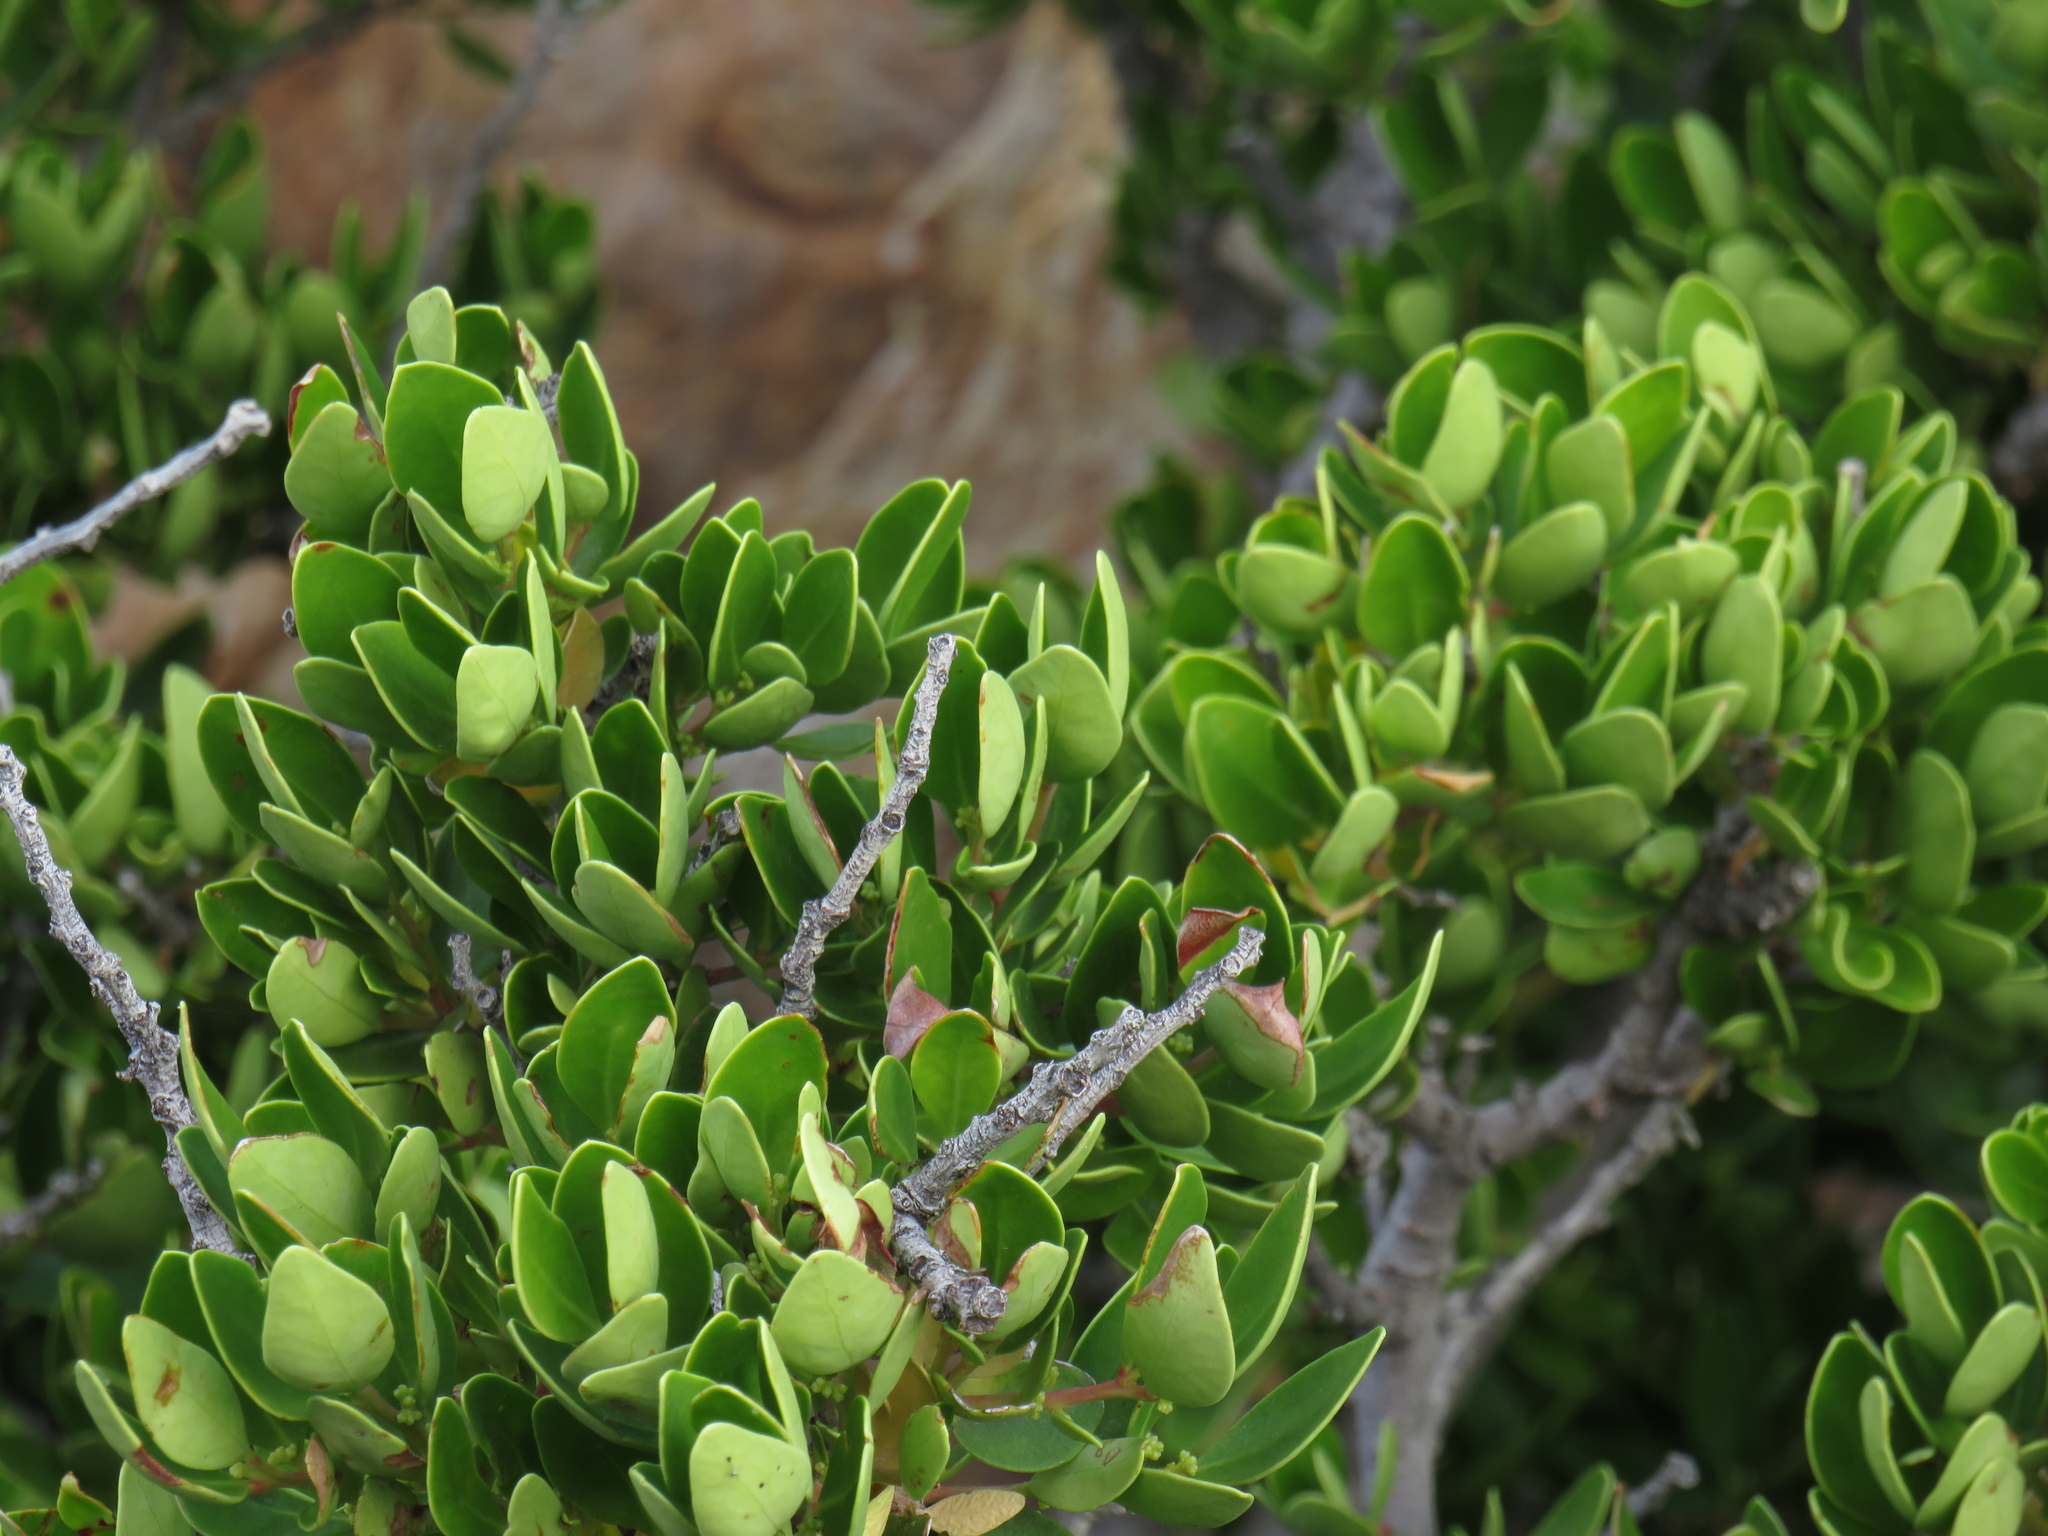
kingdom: Plantae
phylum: Tracheophyta
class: Magnoliopsida
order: Celastrales
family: Celastraceae
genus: Gymnosporia
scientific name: Gymnosporia laurina
